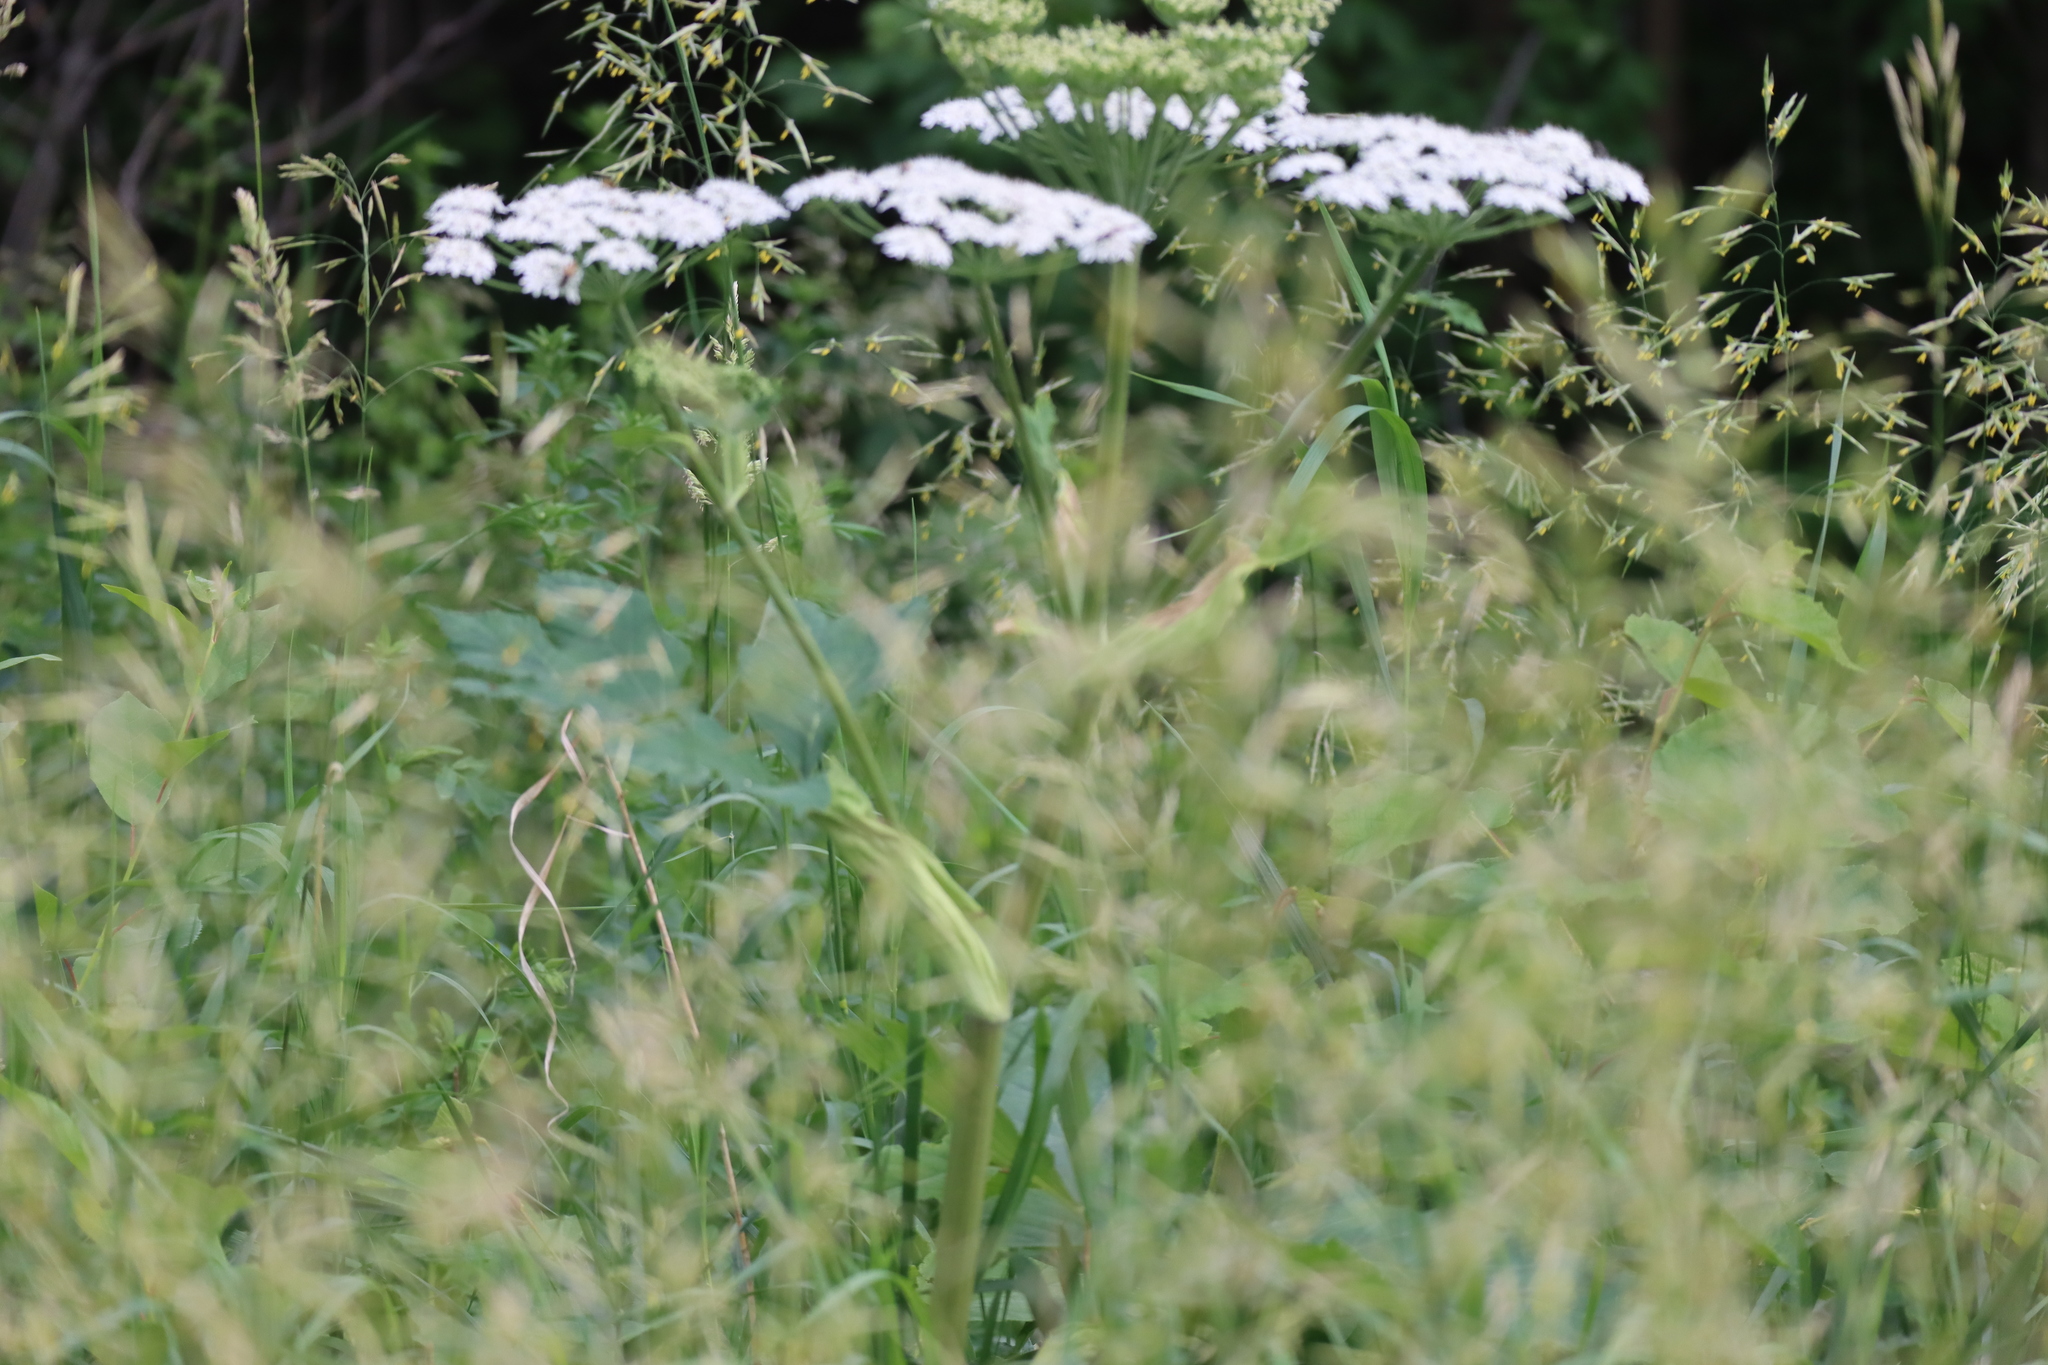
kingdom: Plantae
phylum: Tracheophyta
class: Magnoliopsida
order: Apiales
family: Apiaceae
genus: Heracleum
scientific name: Heracleum maximum
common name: American cow parsnip
